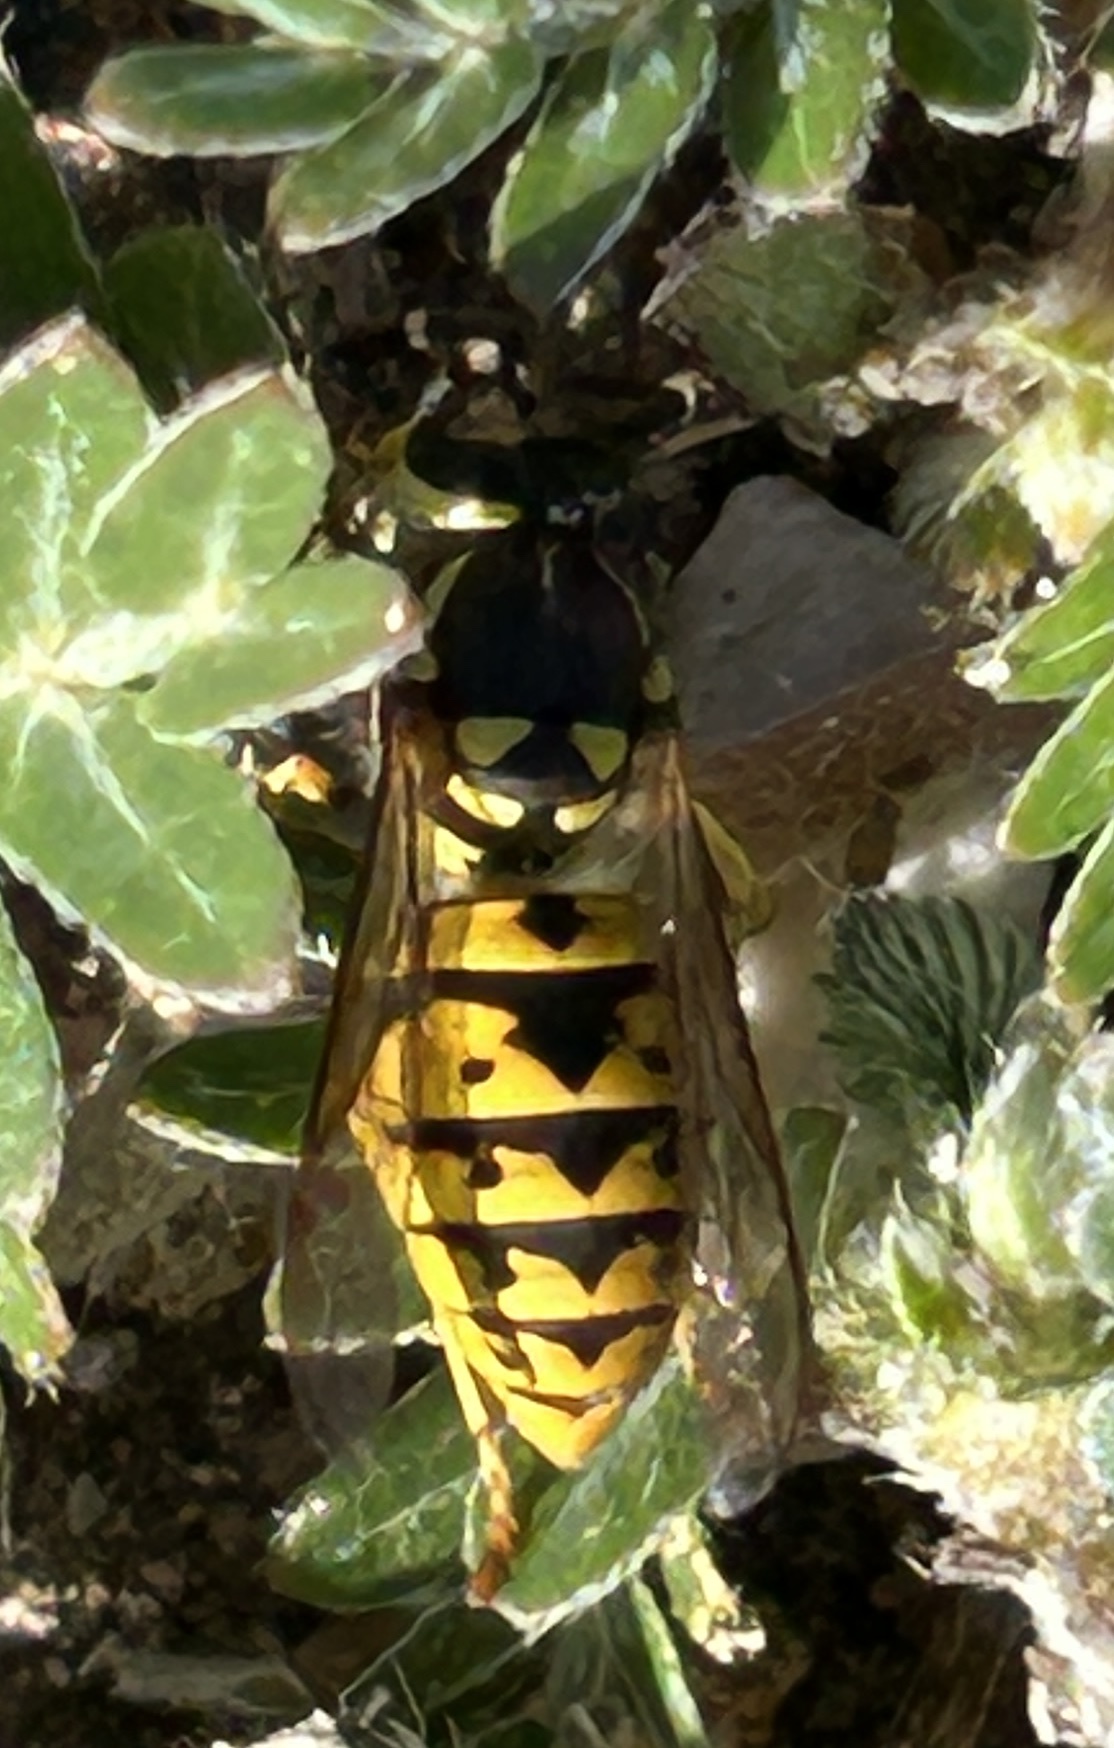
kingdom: Animalia
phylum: Arthropoda
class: Insecta
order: Hymenoptera
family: Vespidae
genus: Vespula
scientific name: Vespula germanica
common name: German wasp
